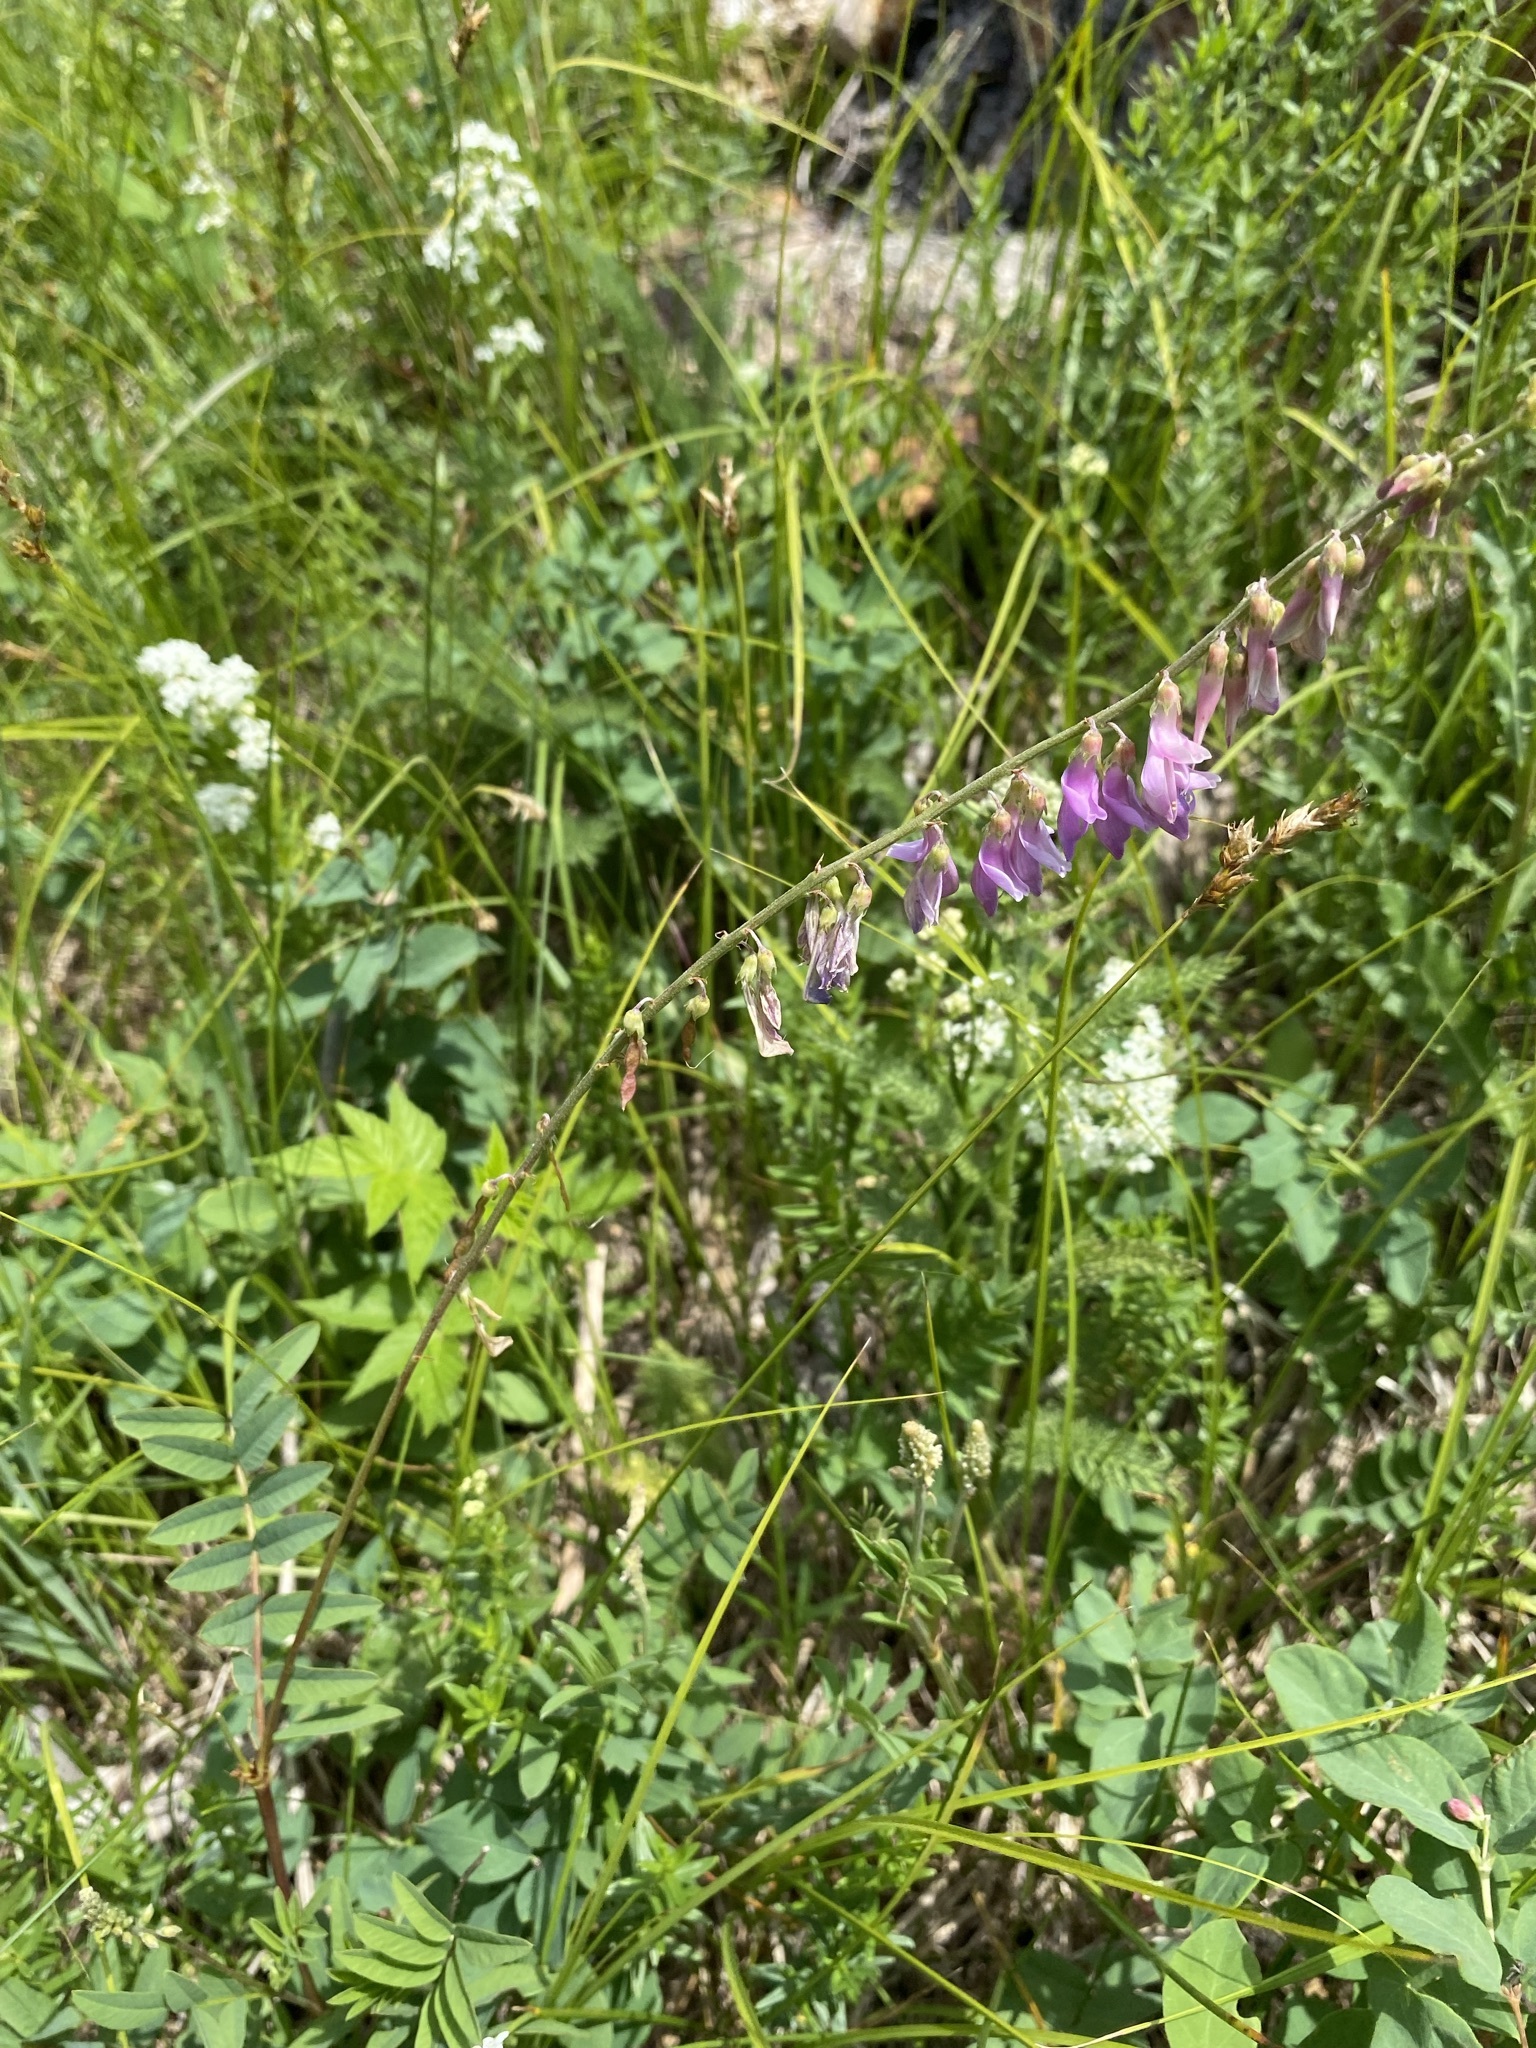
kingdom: Plantae
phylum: Tracheophyta
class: Magnoliopsida
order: Fabales
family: Fabaceae
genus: Hedysarum
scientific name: Hedysarum alpinum
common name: Alpine sweet-vetch
